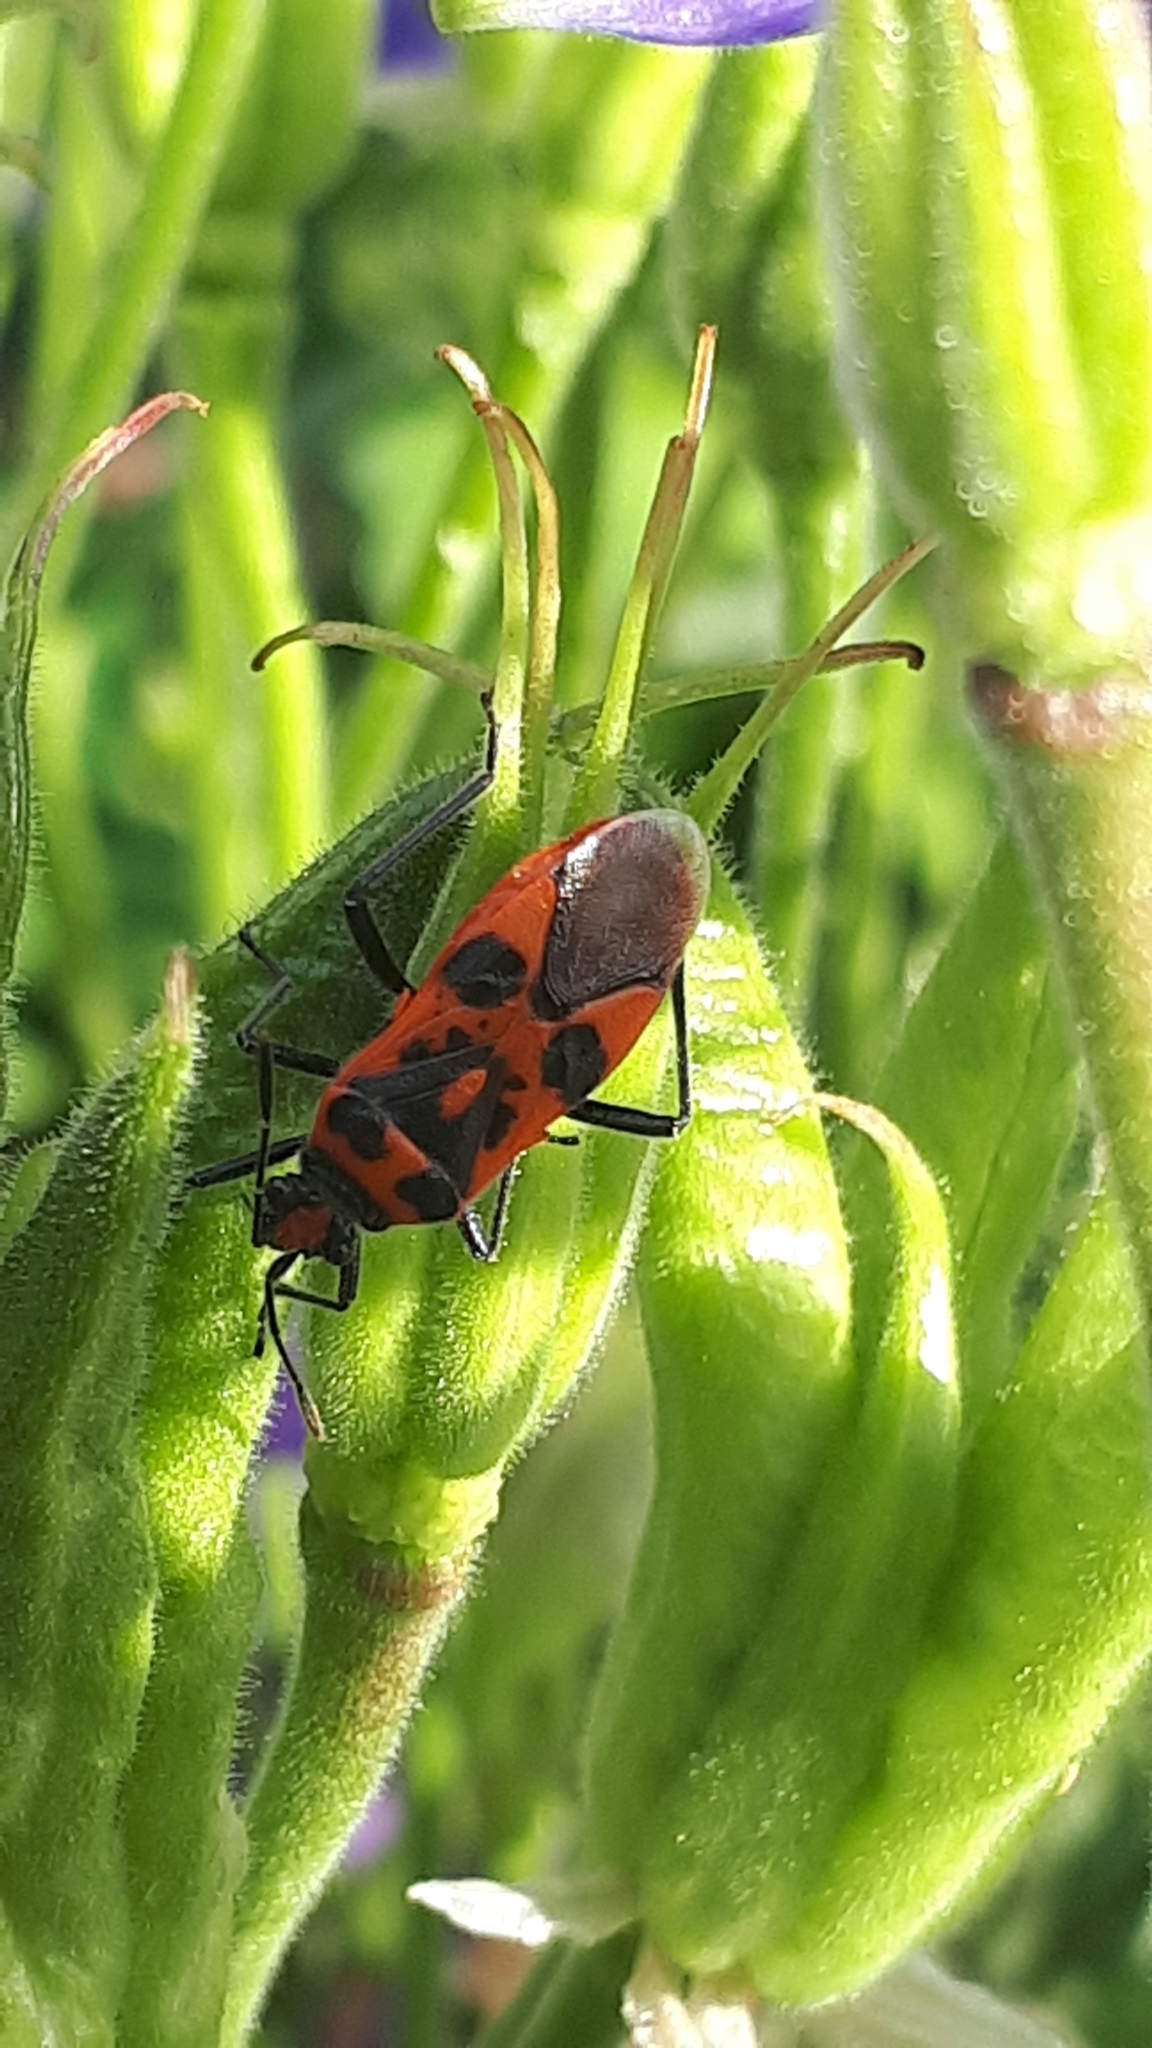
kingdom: Animalia
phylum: Arthropoda
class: Insecta
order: Hemiptera
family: Rhopalidae
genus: Corizus
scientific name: Corizus hyoscyami
